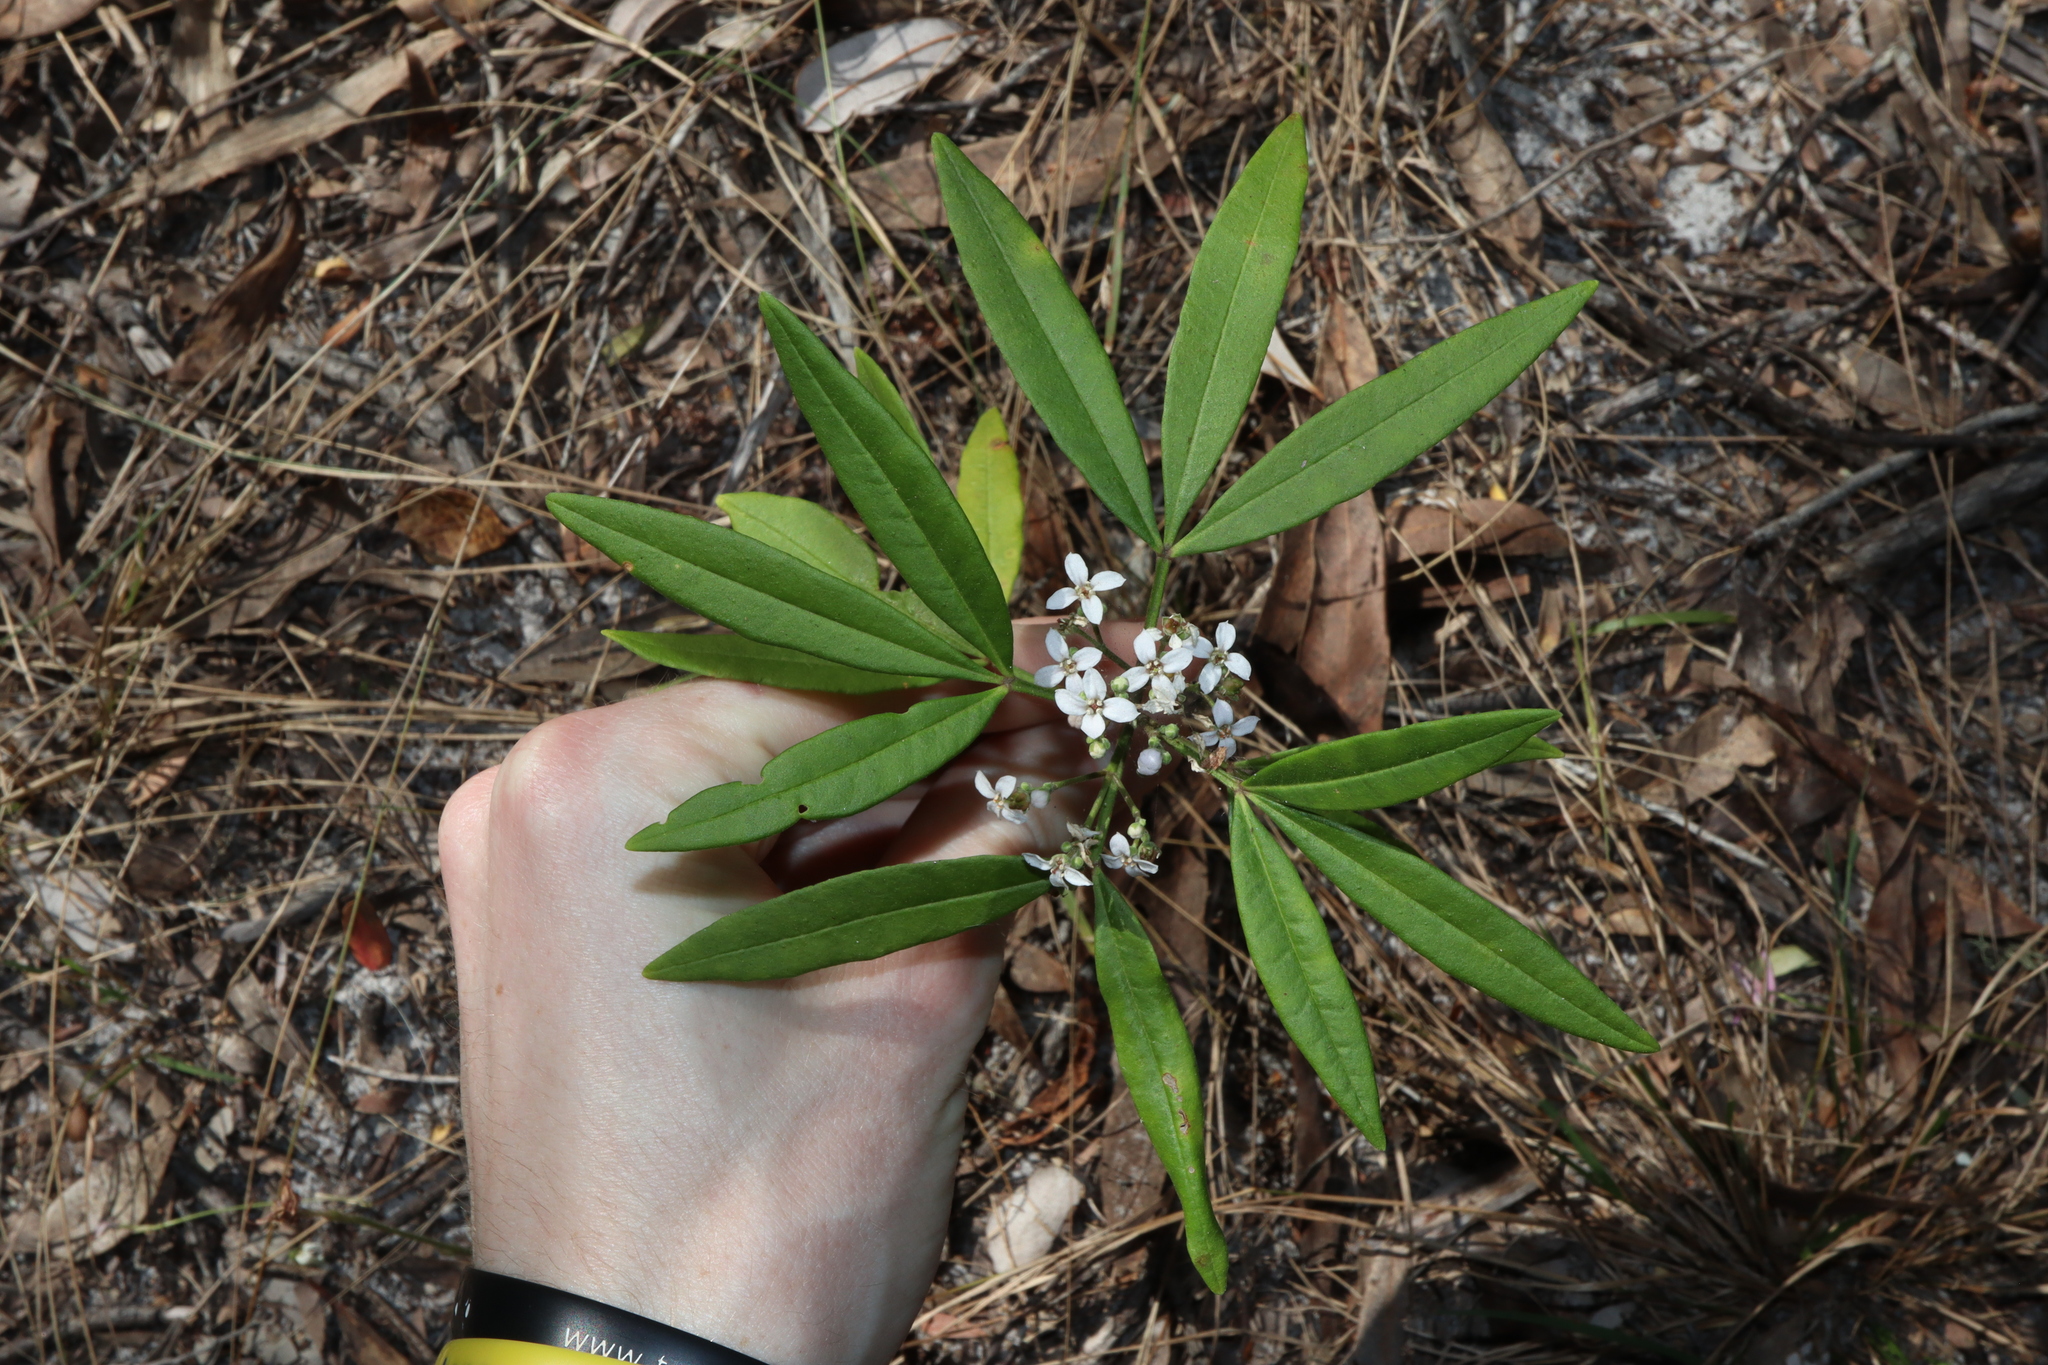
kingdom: Plantae
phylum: Tracheophyta
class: Magnoliopsida
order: Sapindales
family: Rutaceae
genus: Zieria
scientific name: Zieria arborescens
